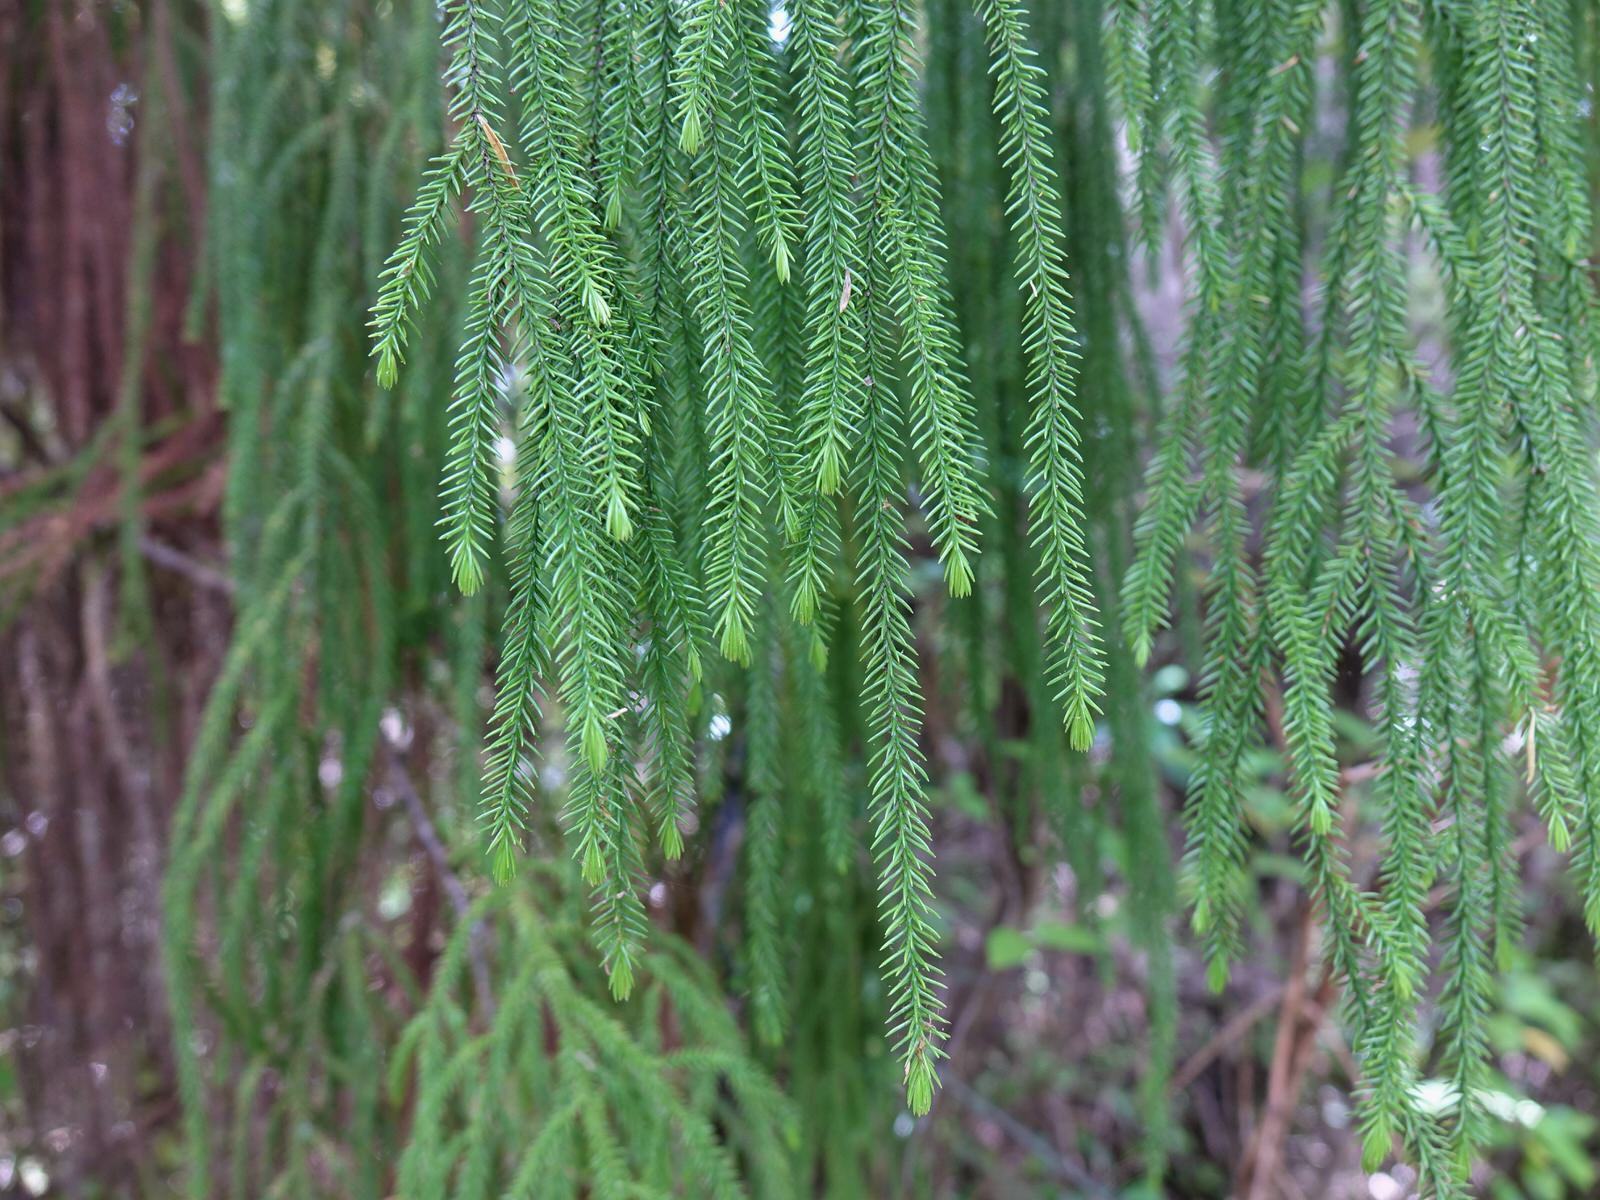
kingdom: Plantae
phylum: Tracheophyta
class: Pinopsida
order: Pinales
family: Podocarpaceae
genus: Dacrydium
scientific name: Dacrydium cupressinum
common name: Red pine
